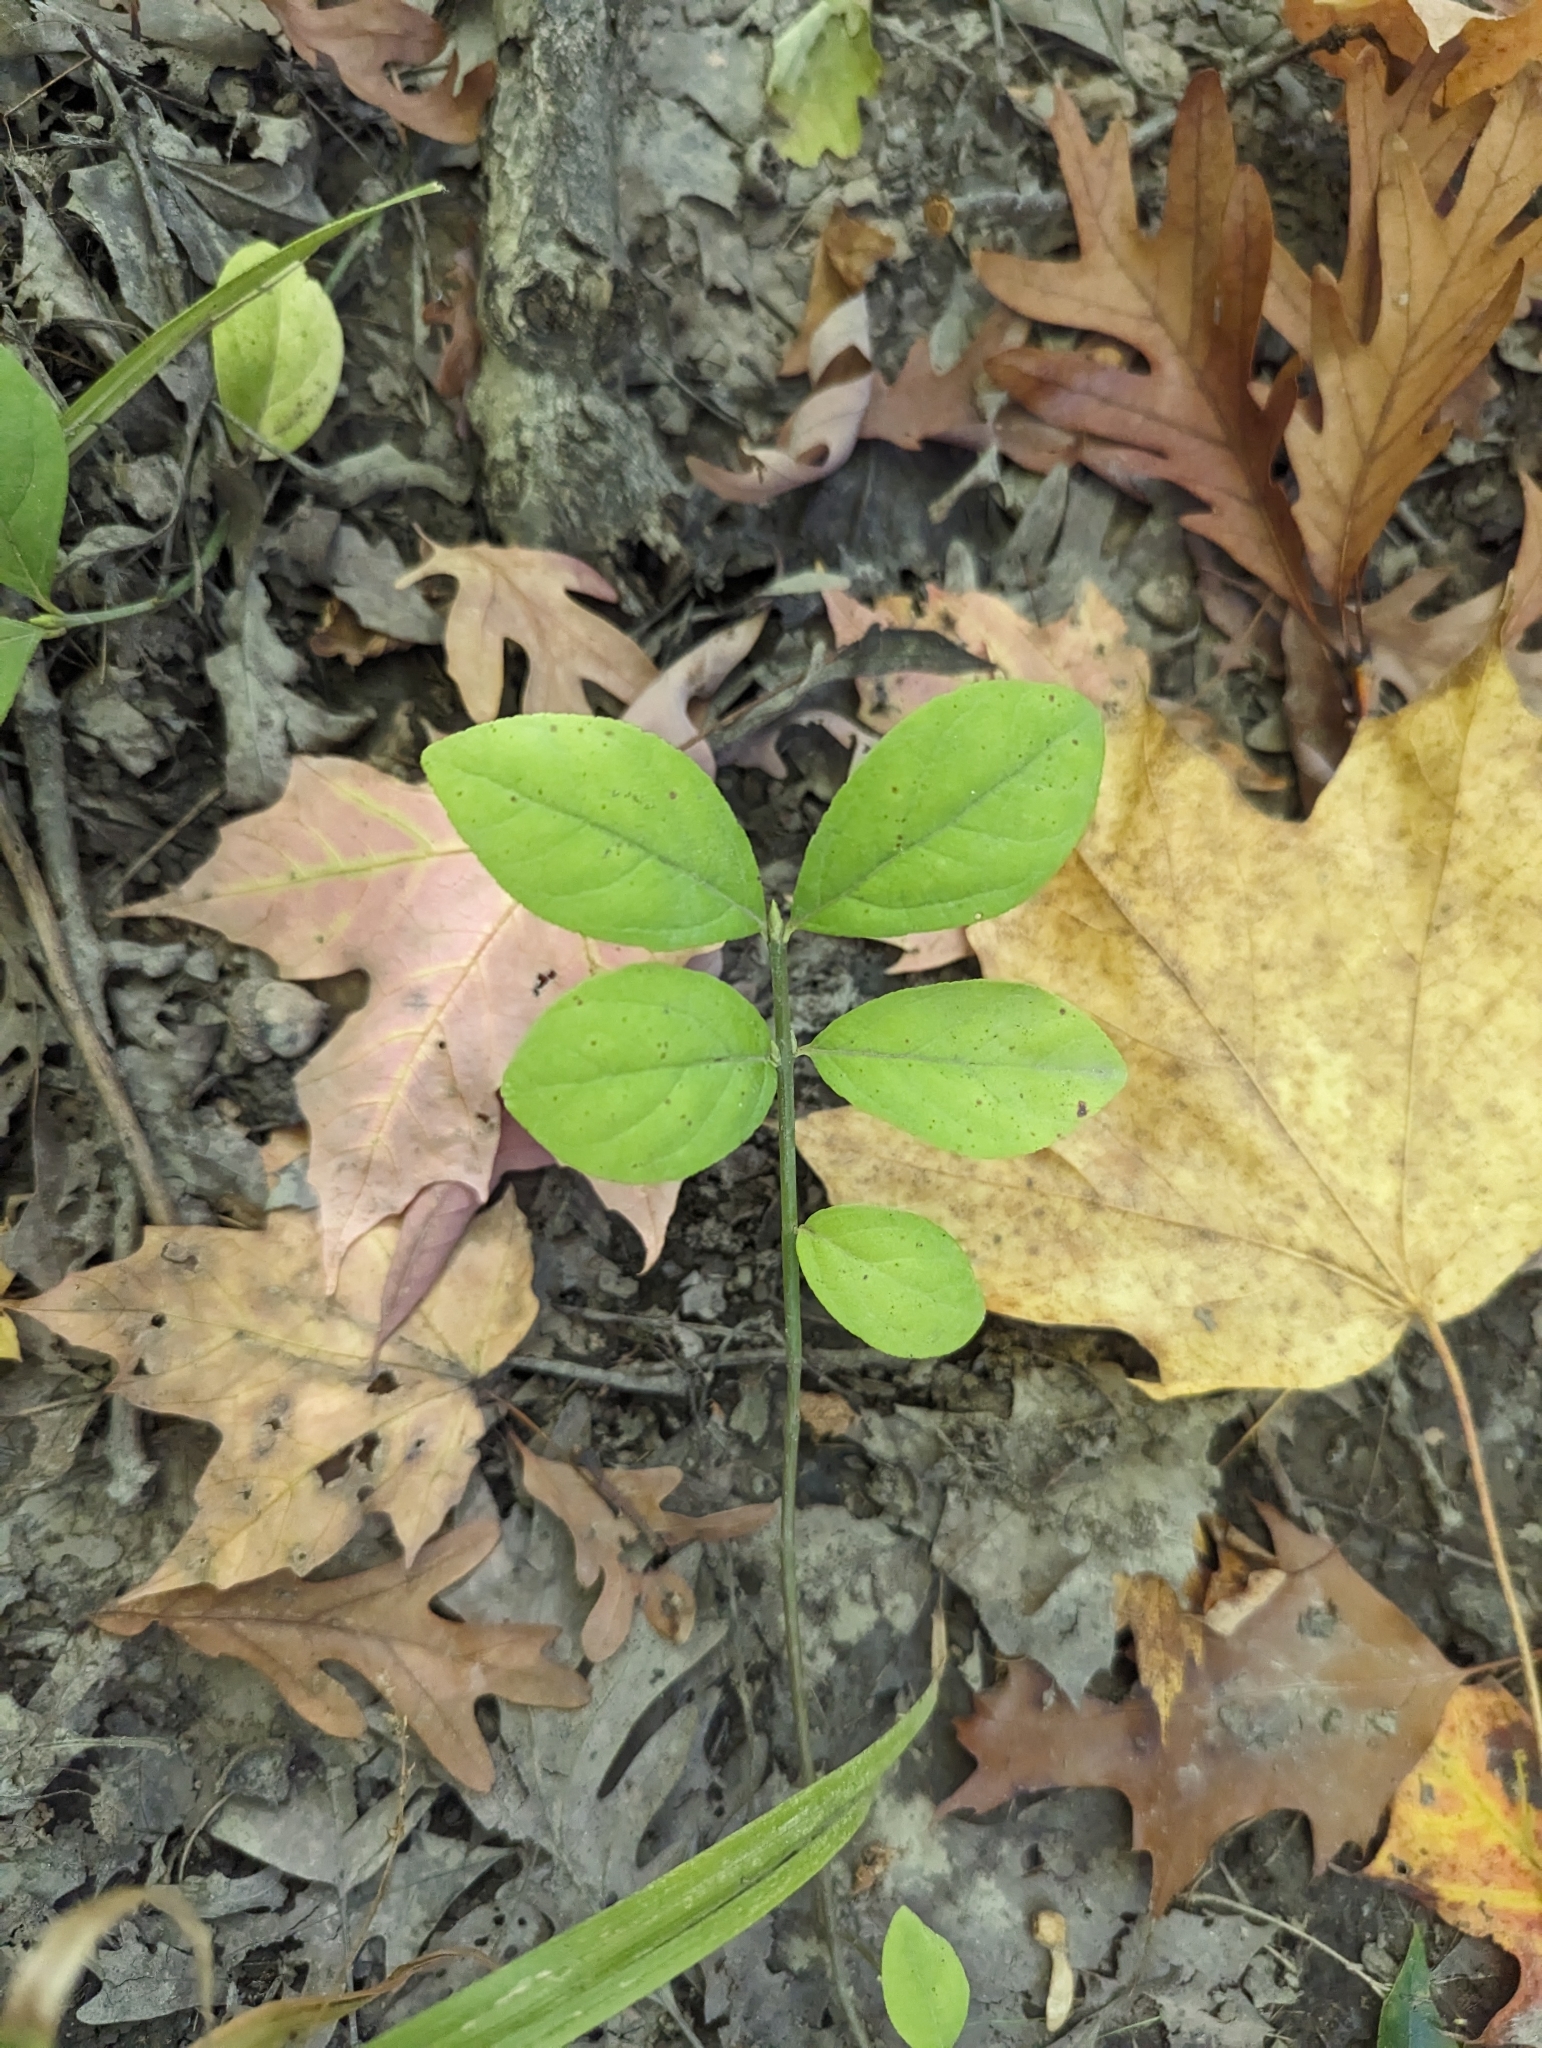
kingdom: Plantae
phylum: Tracheophyta
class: Magnoliopsida
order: Celastrales
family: Celastraceae
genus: Euonymus
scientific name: Euonymus obovatus
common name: Running strawberry-bush
